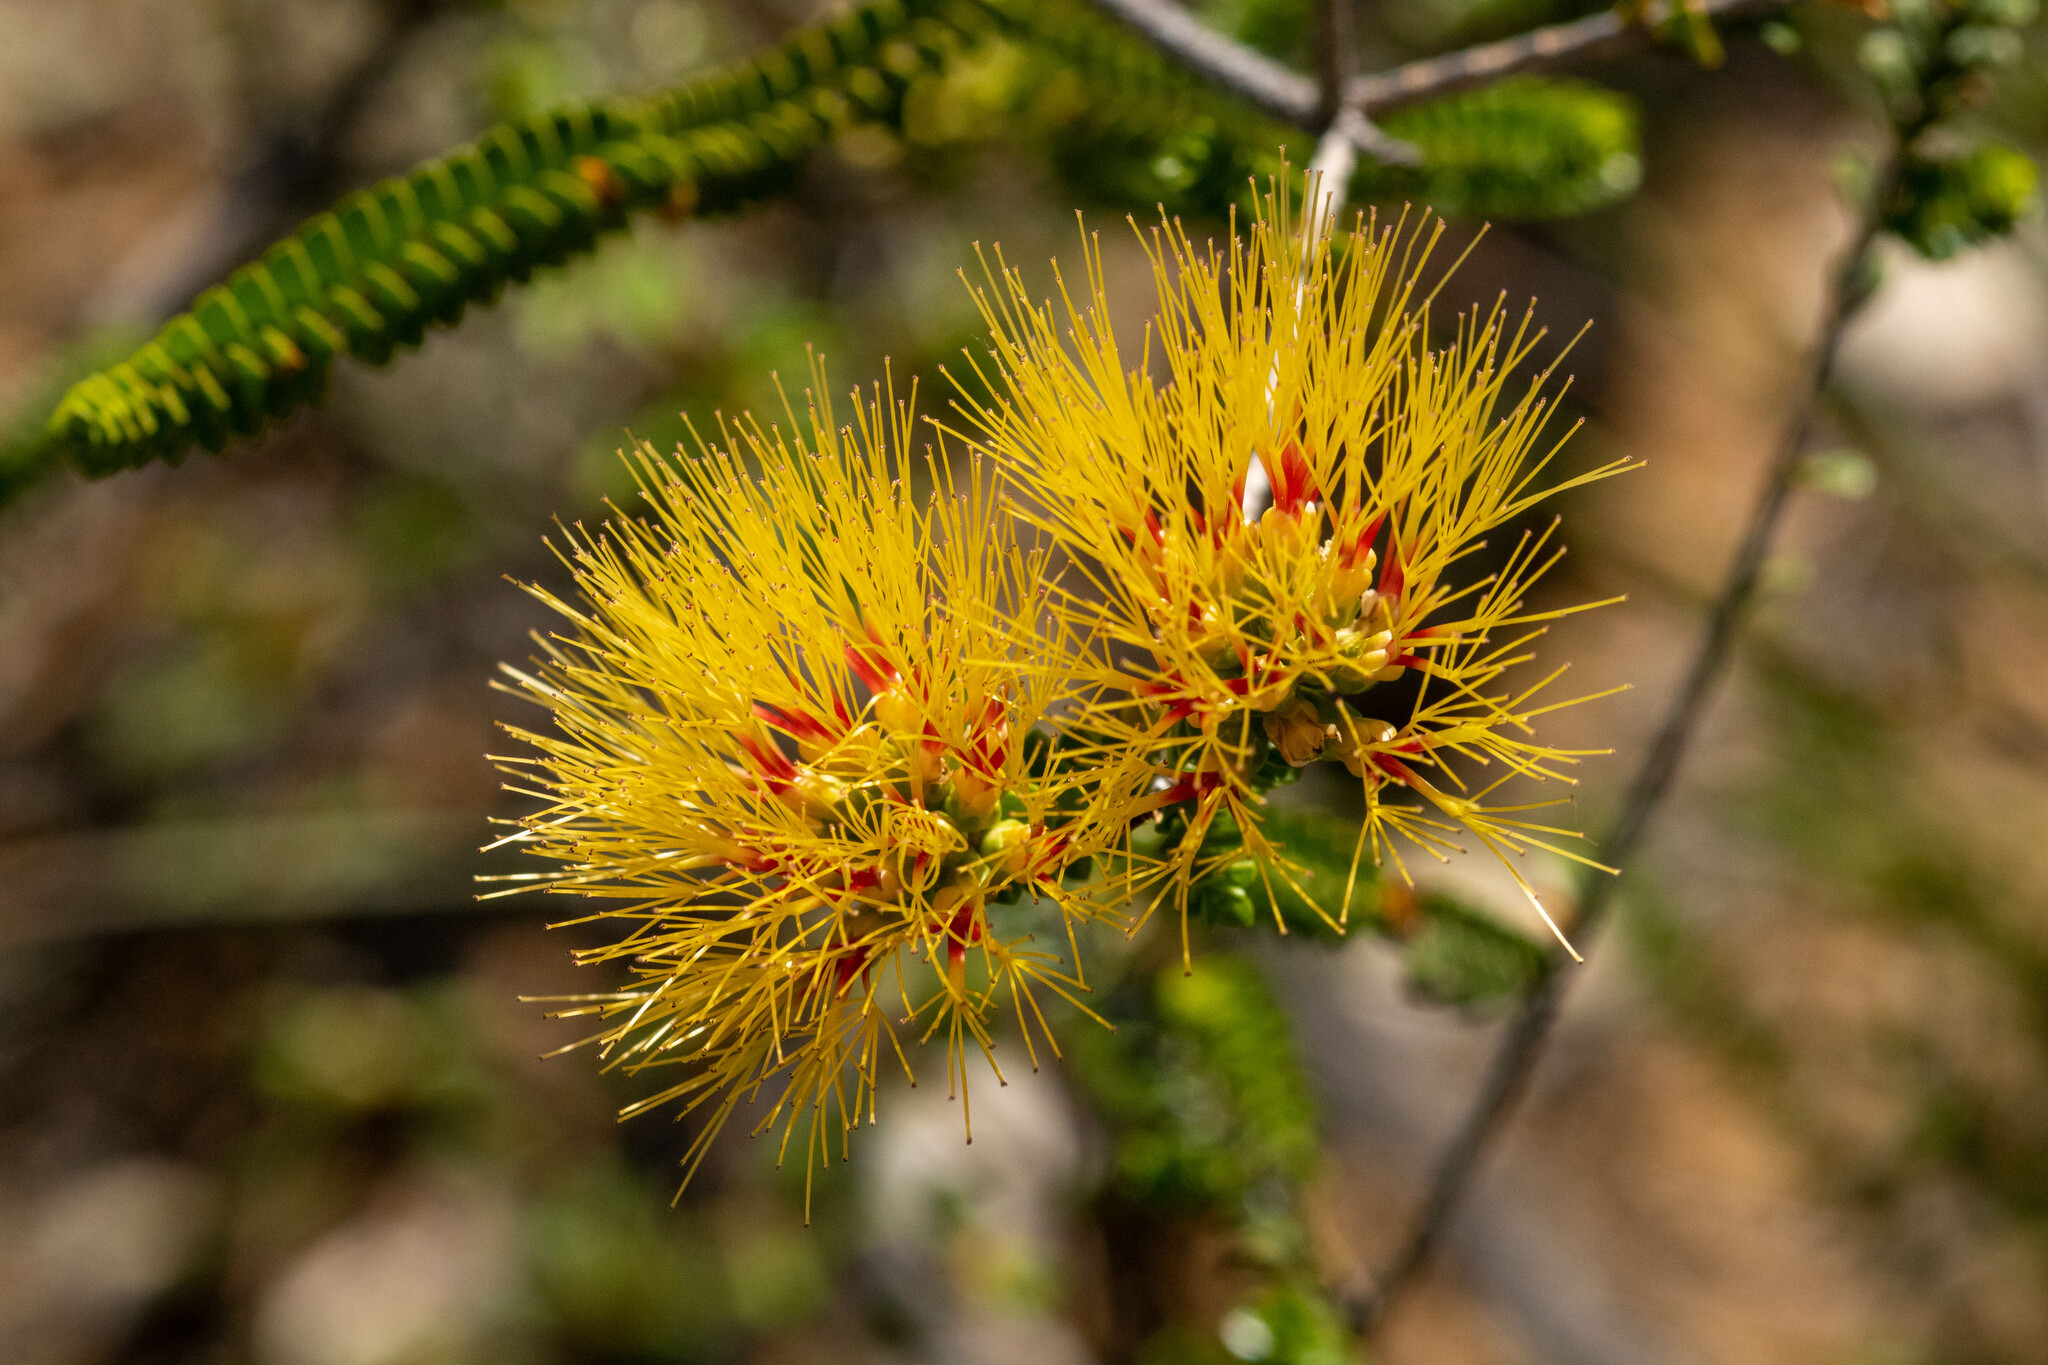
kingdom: Plantae
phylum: Tracheophyta
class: Magnoliopsida
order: Myrtales
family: Myrtaceae
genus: Melaleuca
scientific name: Melaleuca aestiva
